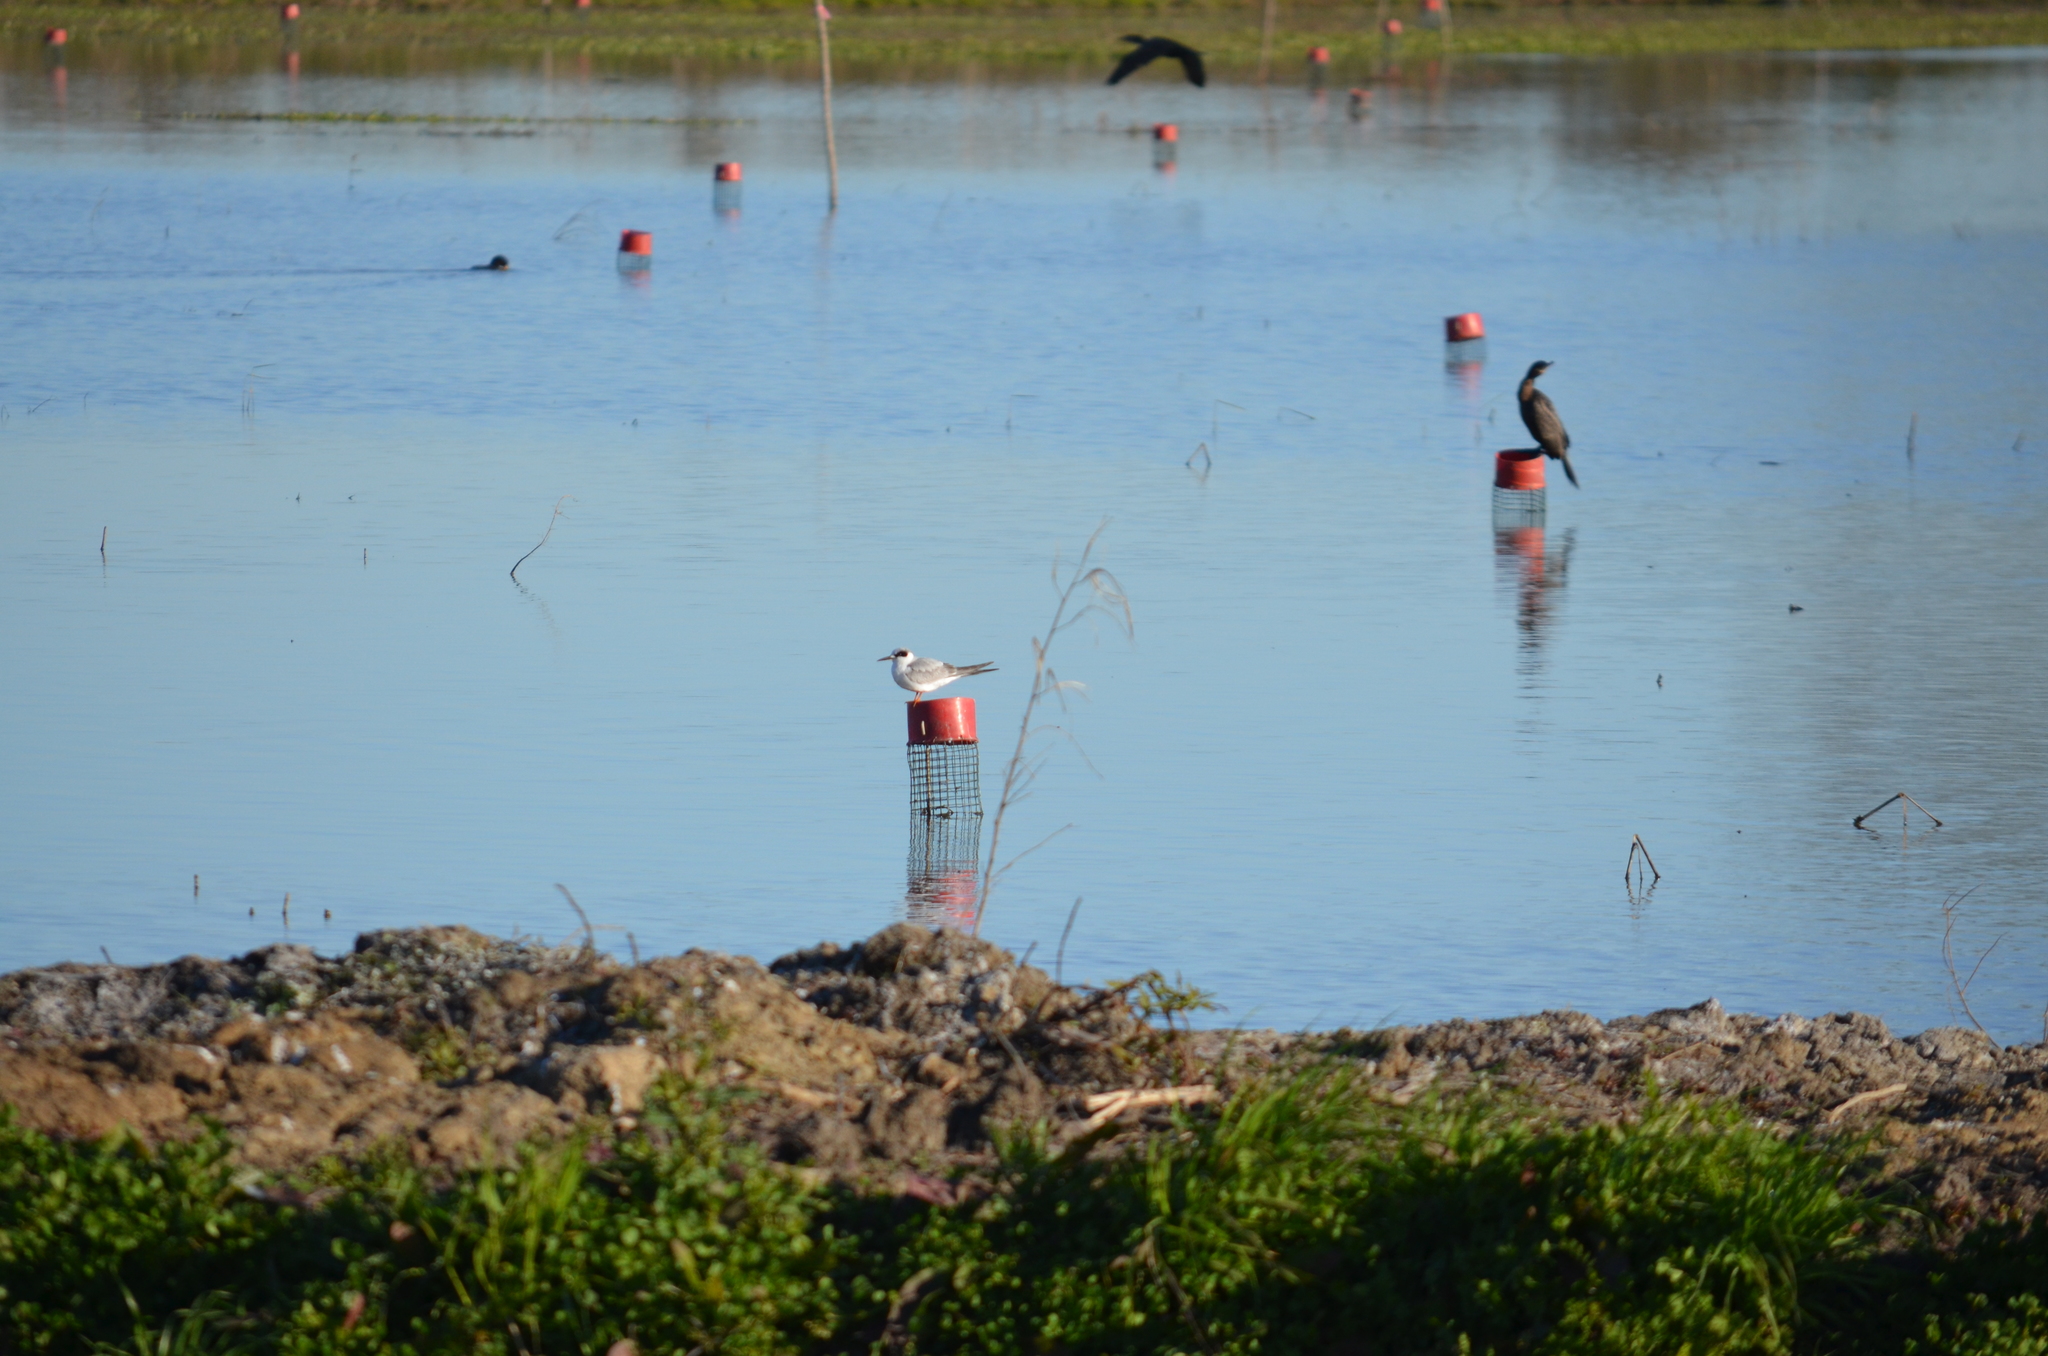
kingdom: Animalia
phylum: Chordata
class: Aves
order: Charadriiformes
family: Laridae
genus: Sterna
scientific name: Sterna forsteri
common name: Forster's tern
